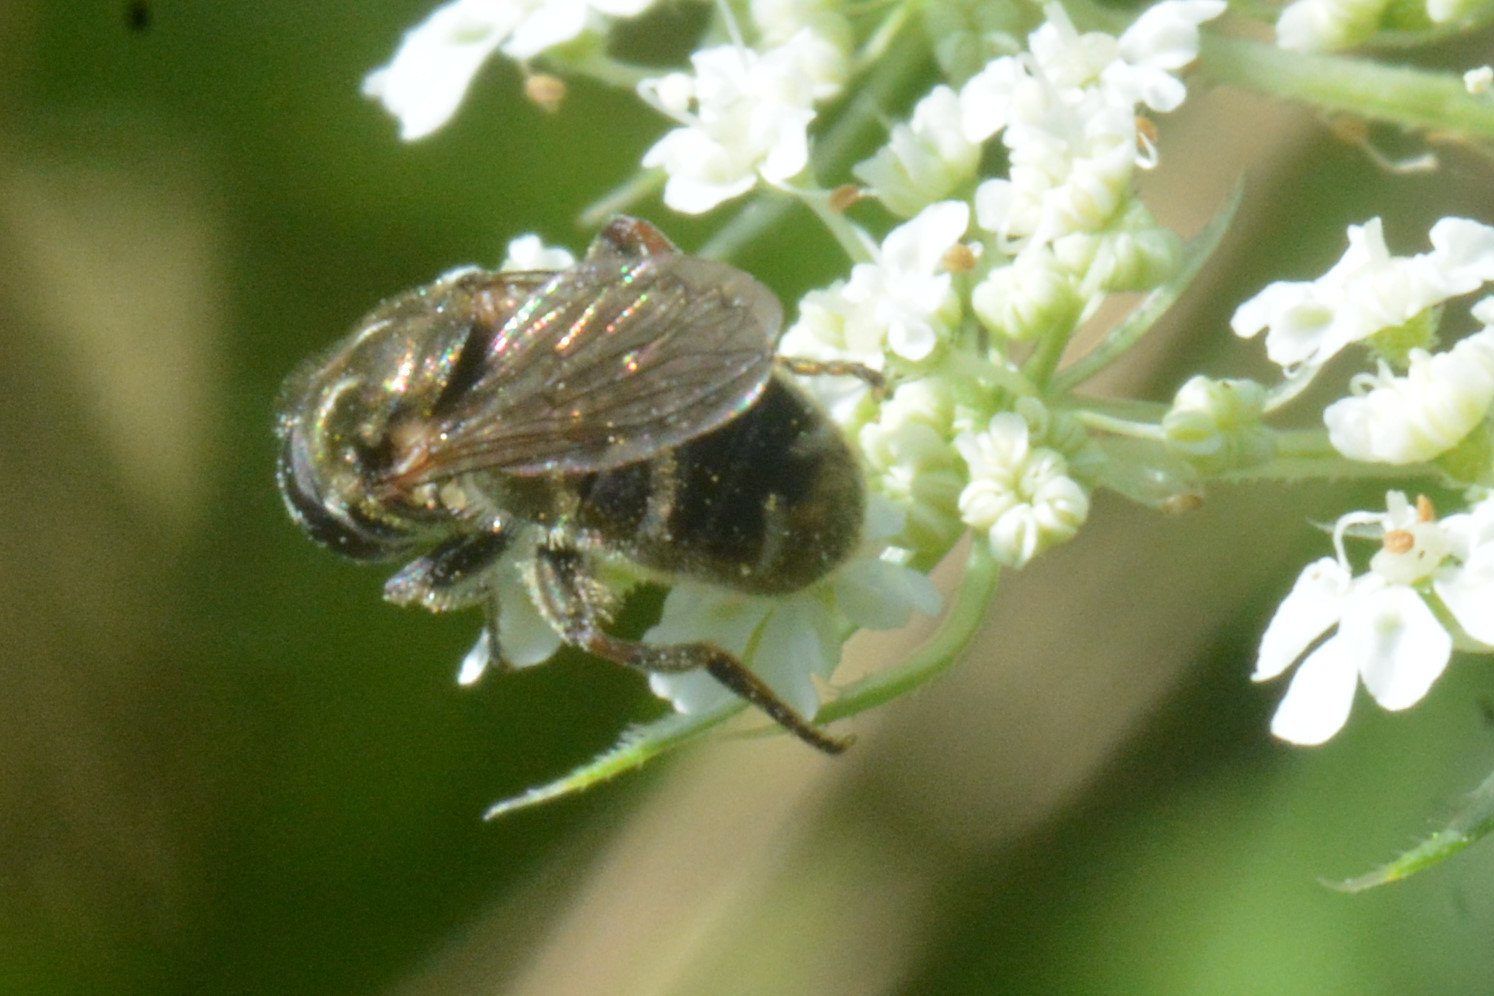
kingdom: Animalia
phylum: Arthropoda
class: Insecta
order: Diptera
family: Syrphidae
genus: Eumerus
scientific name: Eumerus
